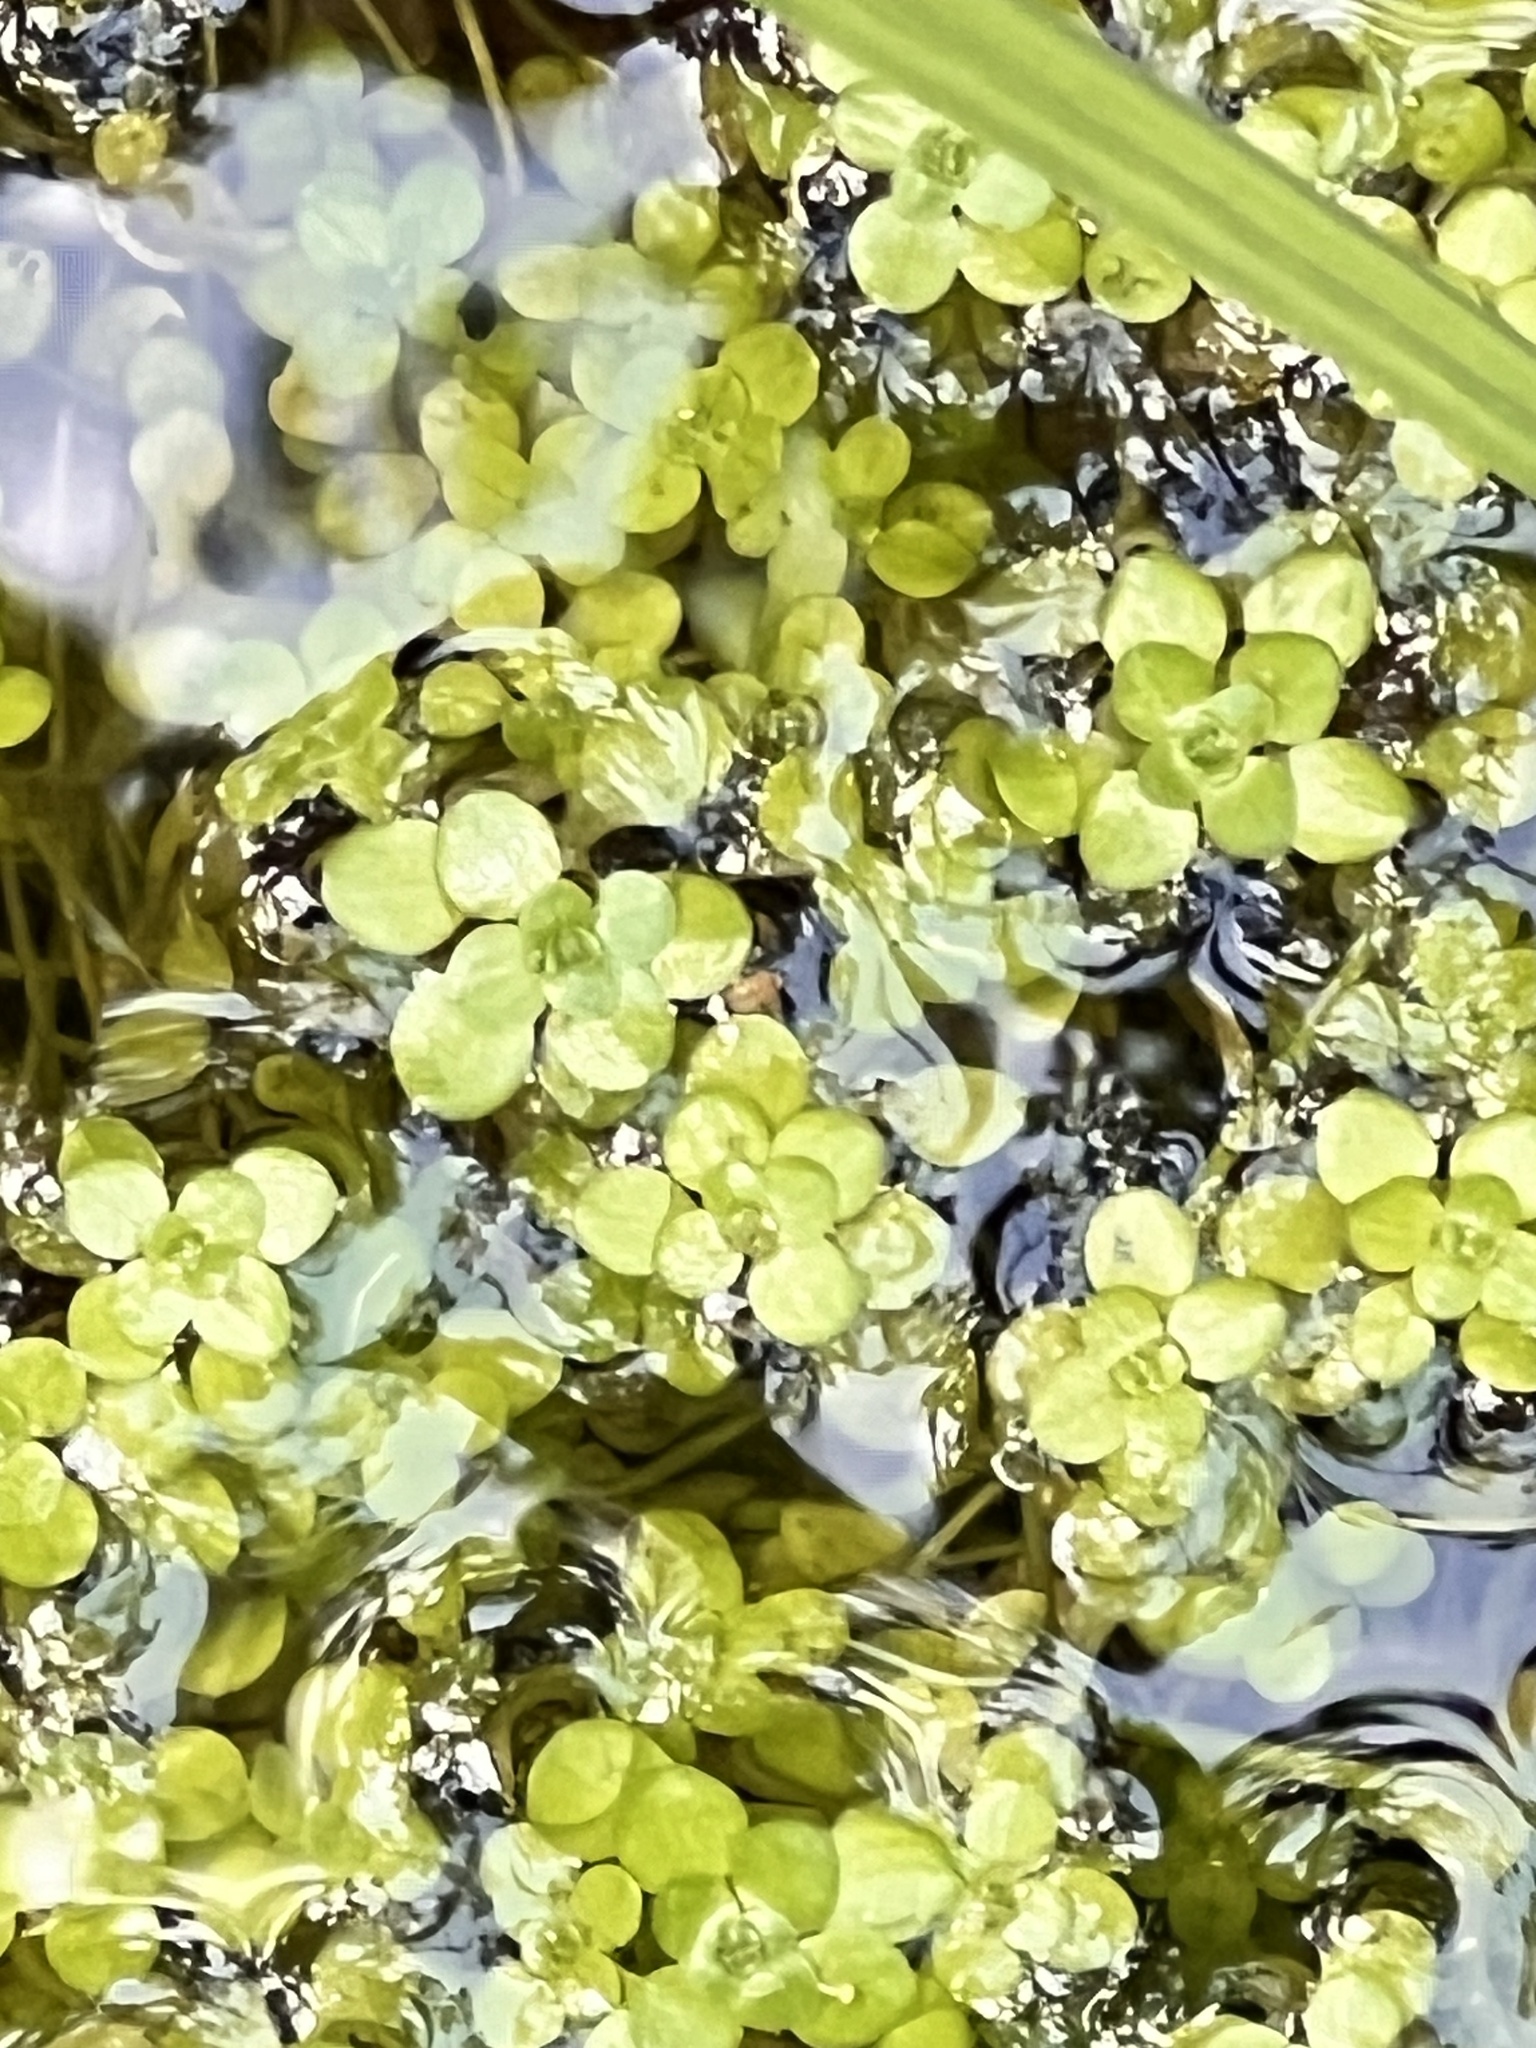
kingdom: Plantae
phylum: Tracheophyta
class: Magnoliopsida
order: Lamiales
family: Plantaginaceae
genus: Callitriche
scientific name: Callitriche stagnalis
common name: Common water-starwort
